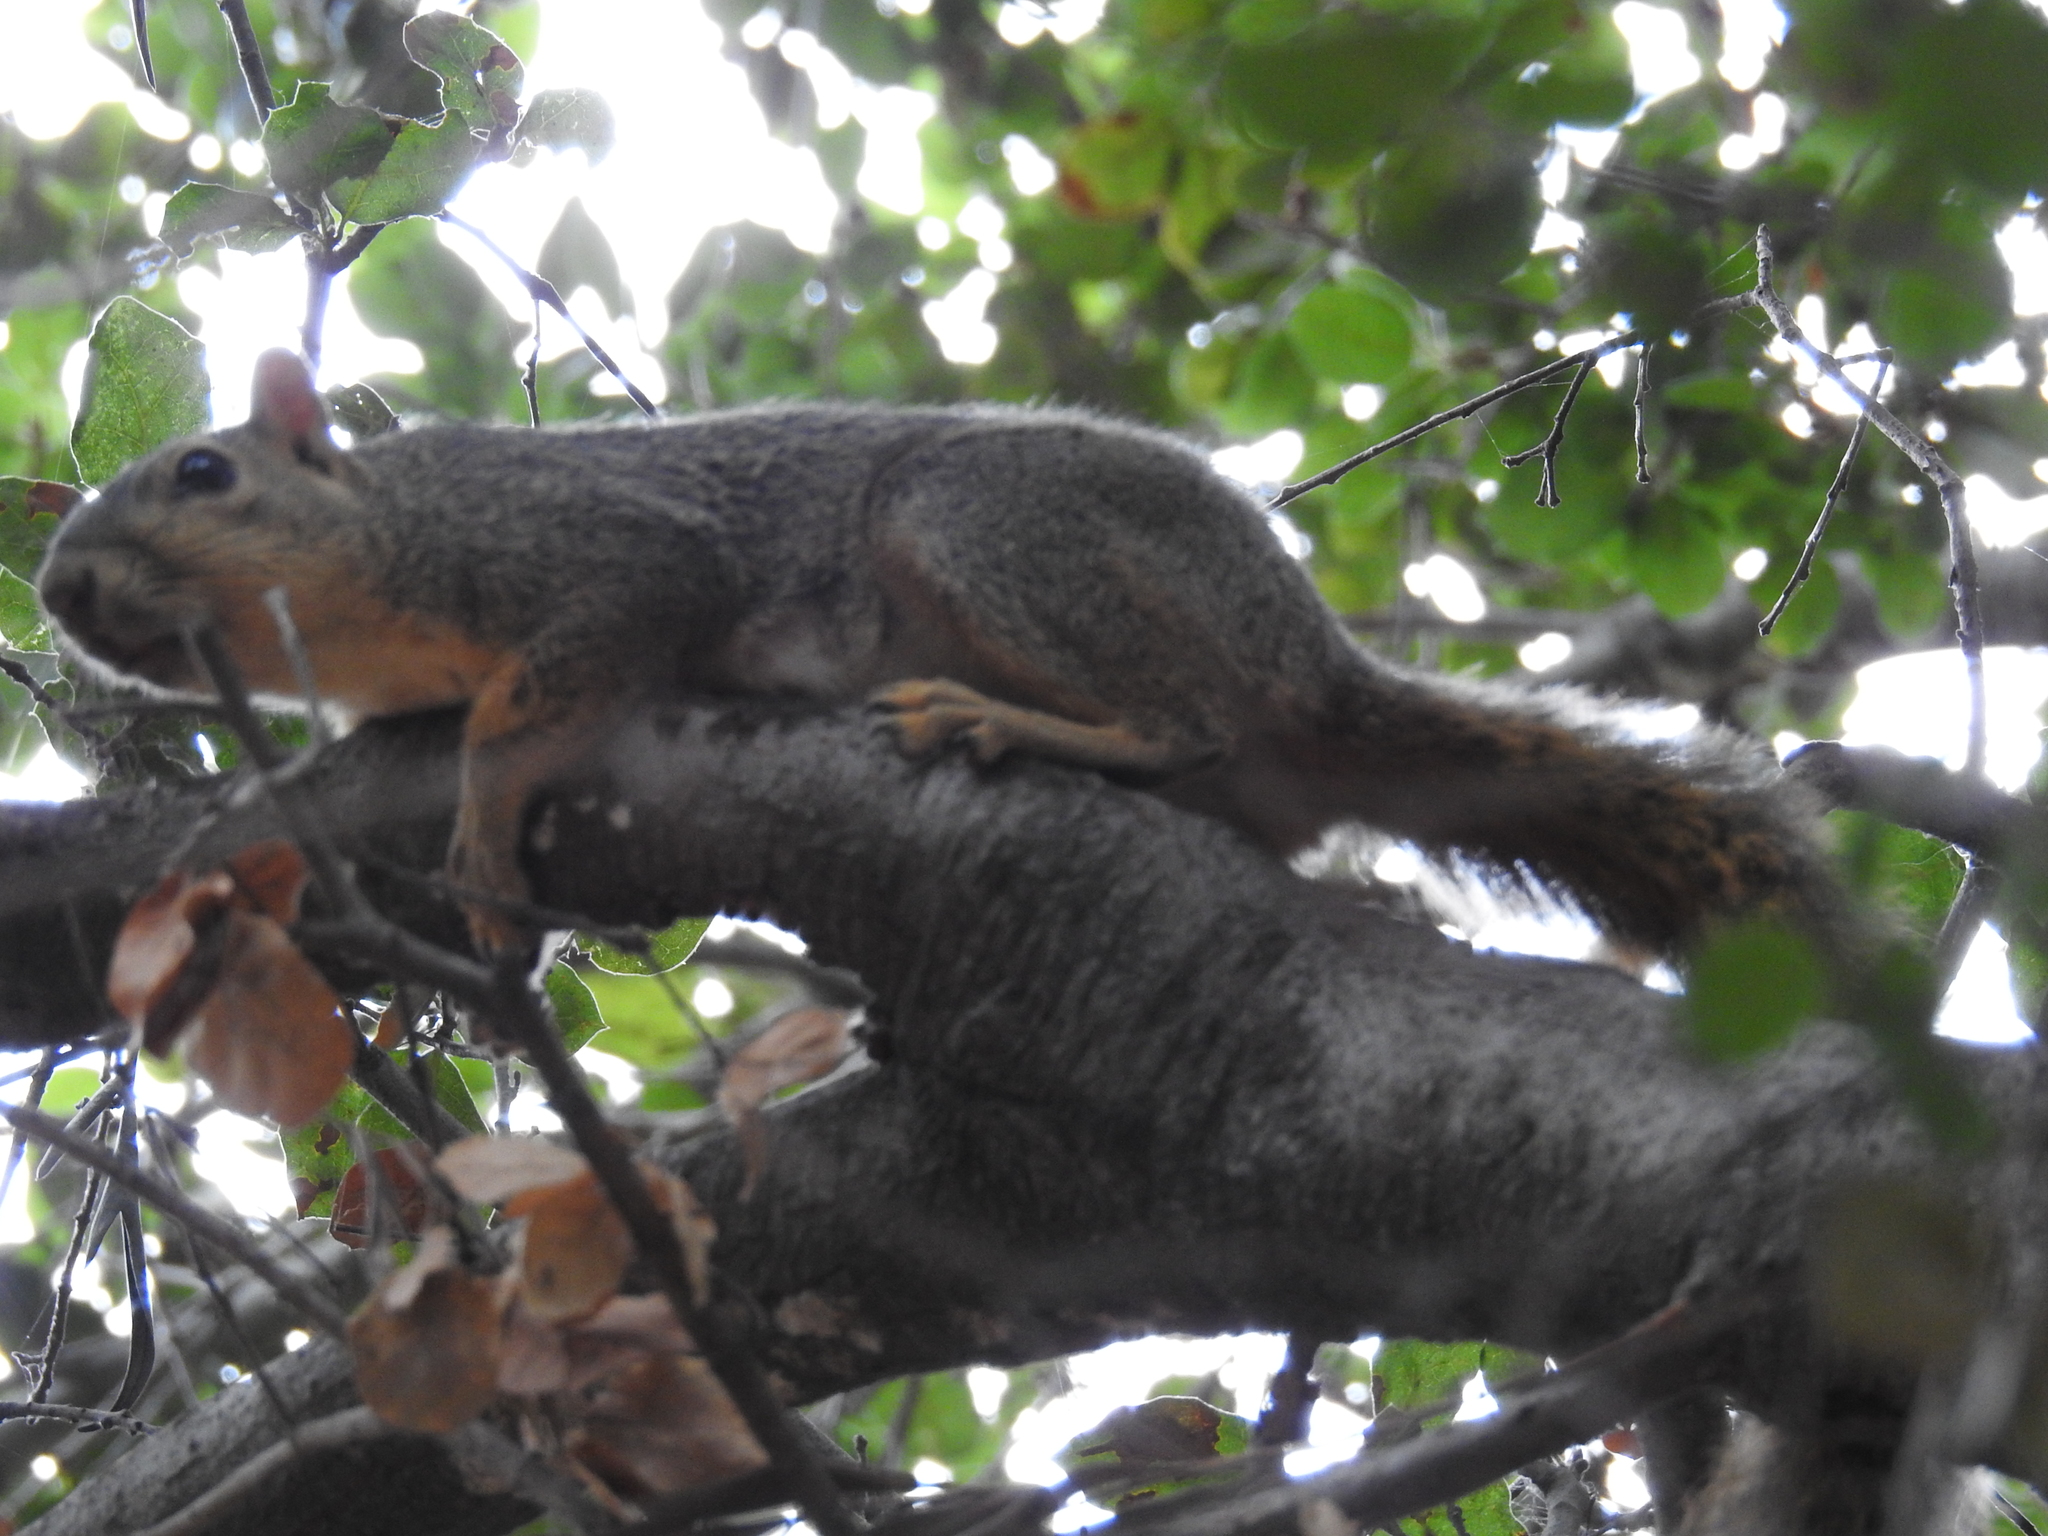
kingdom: Animalia
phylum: Chordata
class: Mammalia
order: Rodentia
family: Sciuridae
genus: Sciurus
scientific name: Sciurus niger
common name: Fox squirrel
